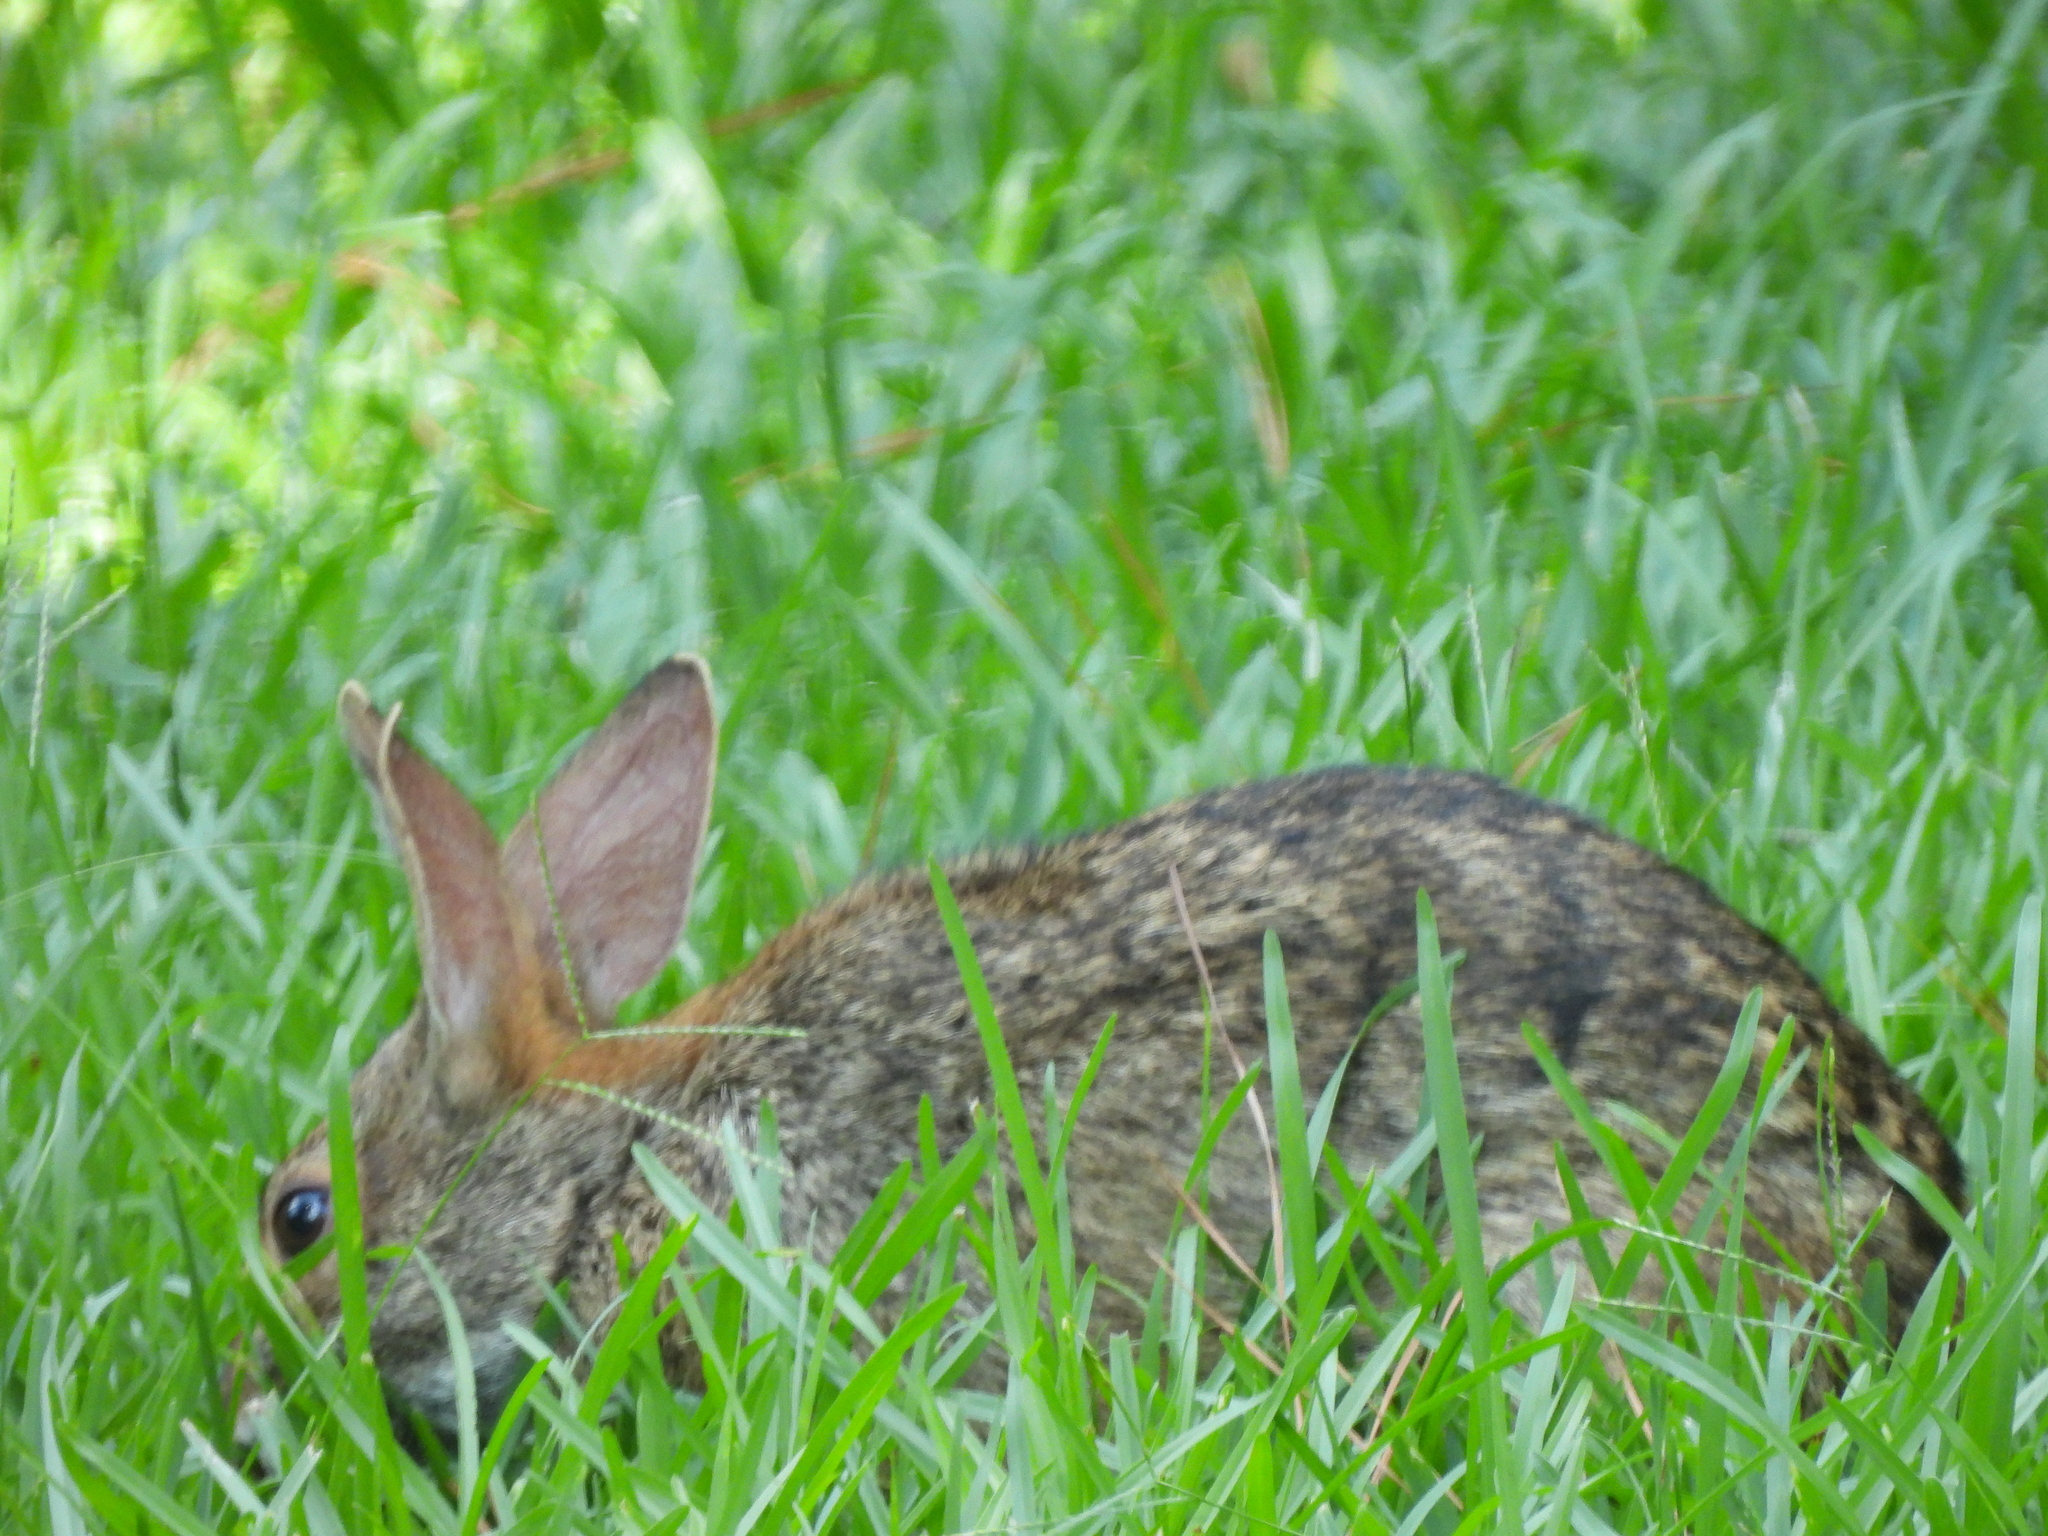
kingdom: Animalia
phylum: Chordata
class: Mammalia
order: Lagomorpha
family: Leporidae
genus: Sylvilagus
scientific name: Sylvilagus aquaticus
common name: Swamp rabbit
